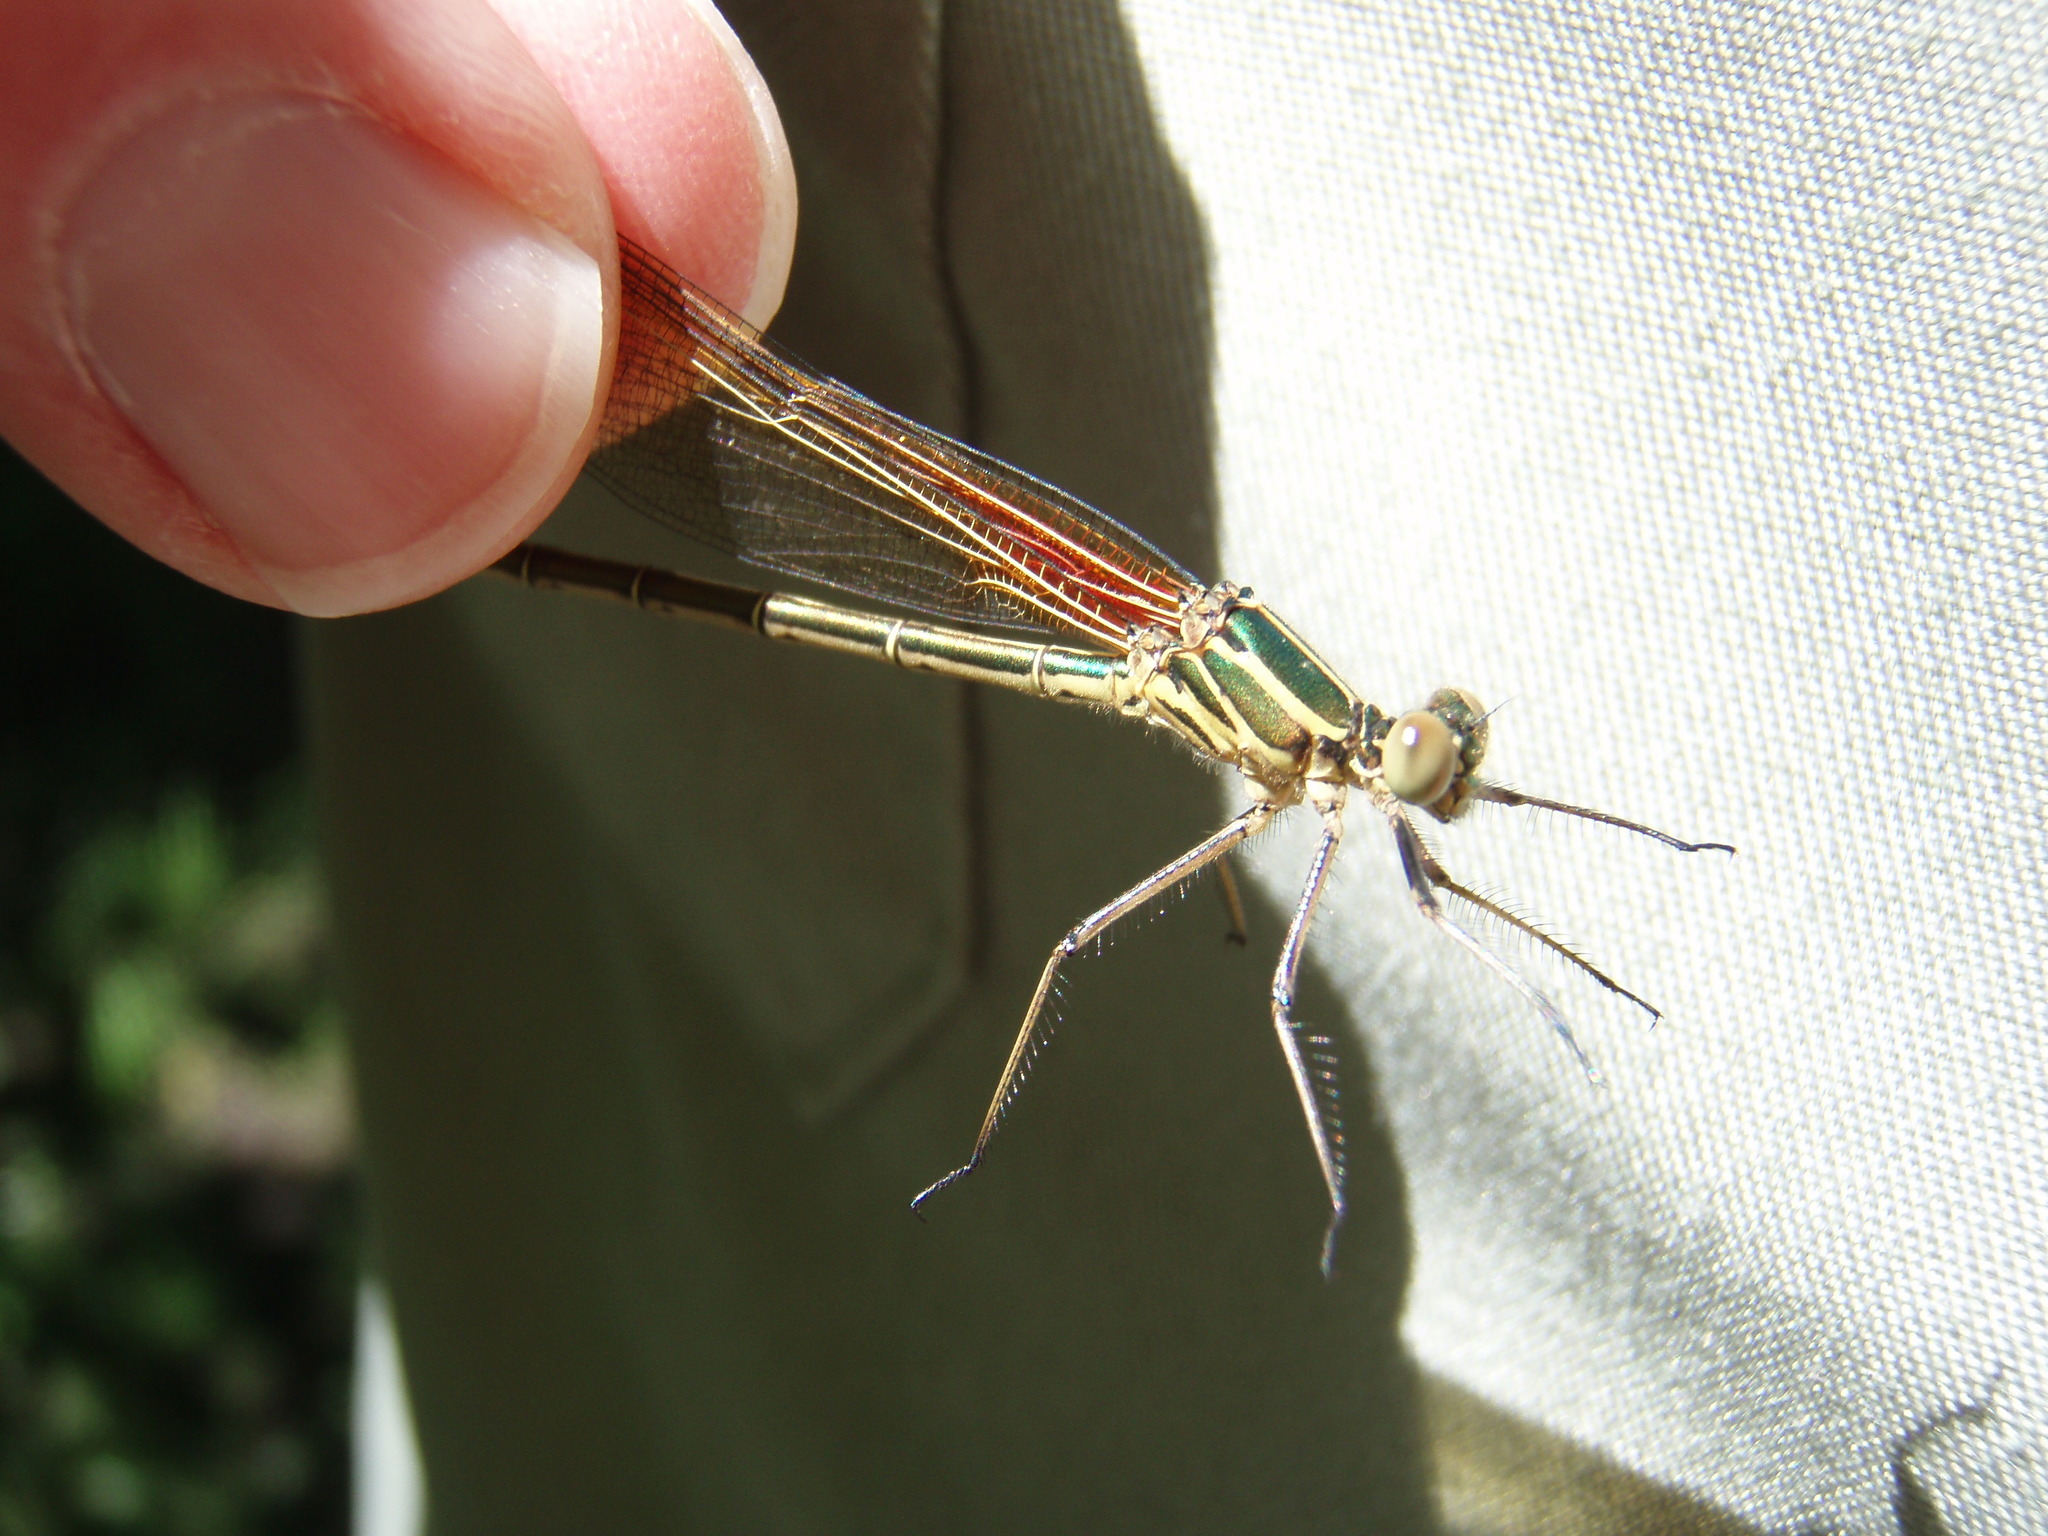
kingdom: Animalia
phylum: Arthropoda
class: Insecta
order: Odonata
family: Calopterygidae
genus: Hetaerina
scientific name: Hetaerina americana
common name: American rubyspot
